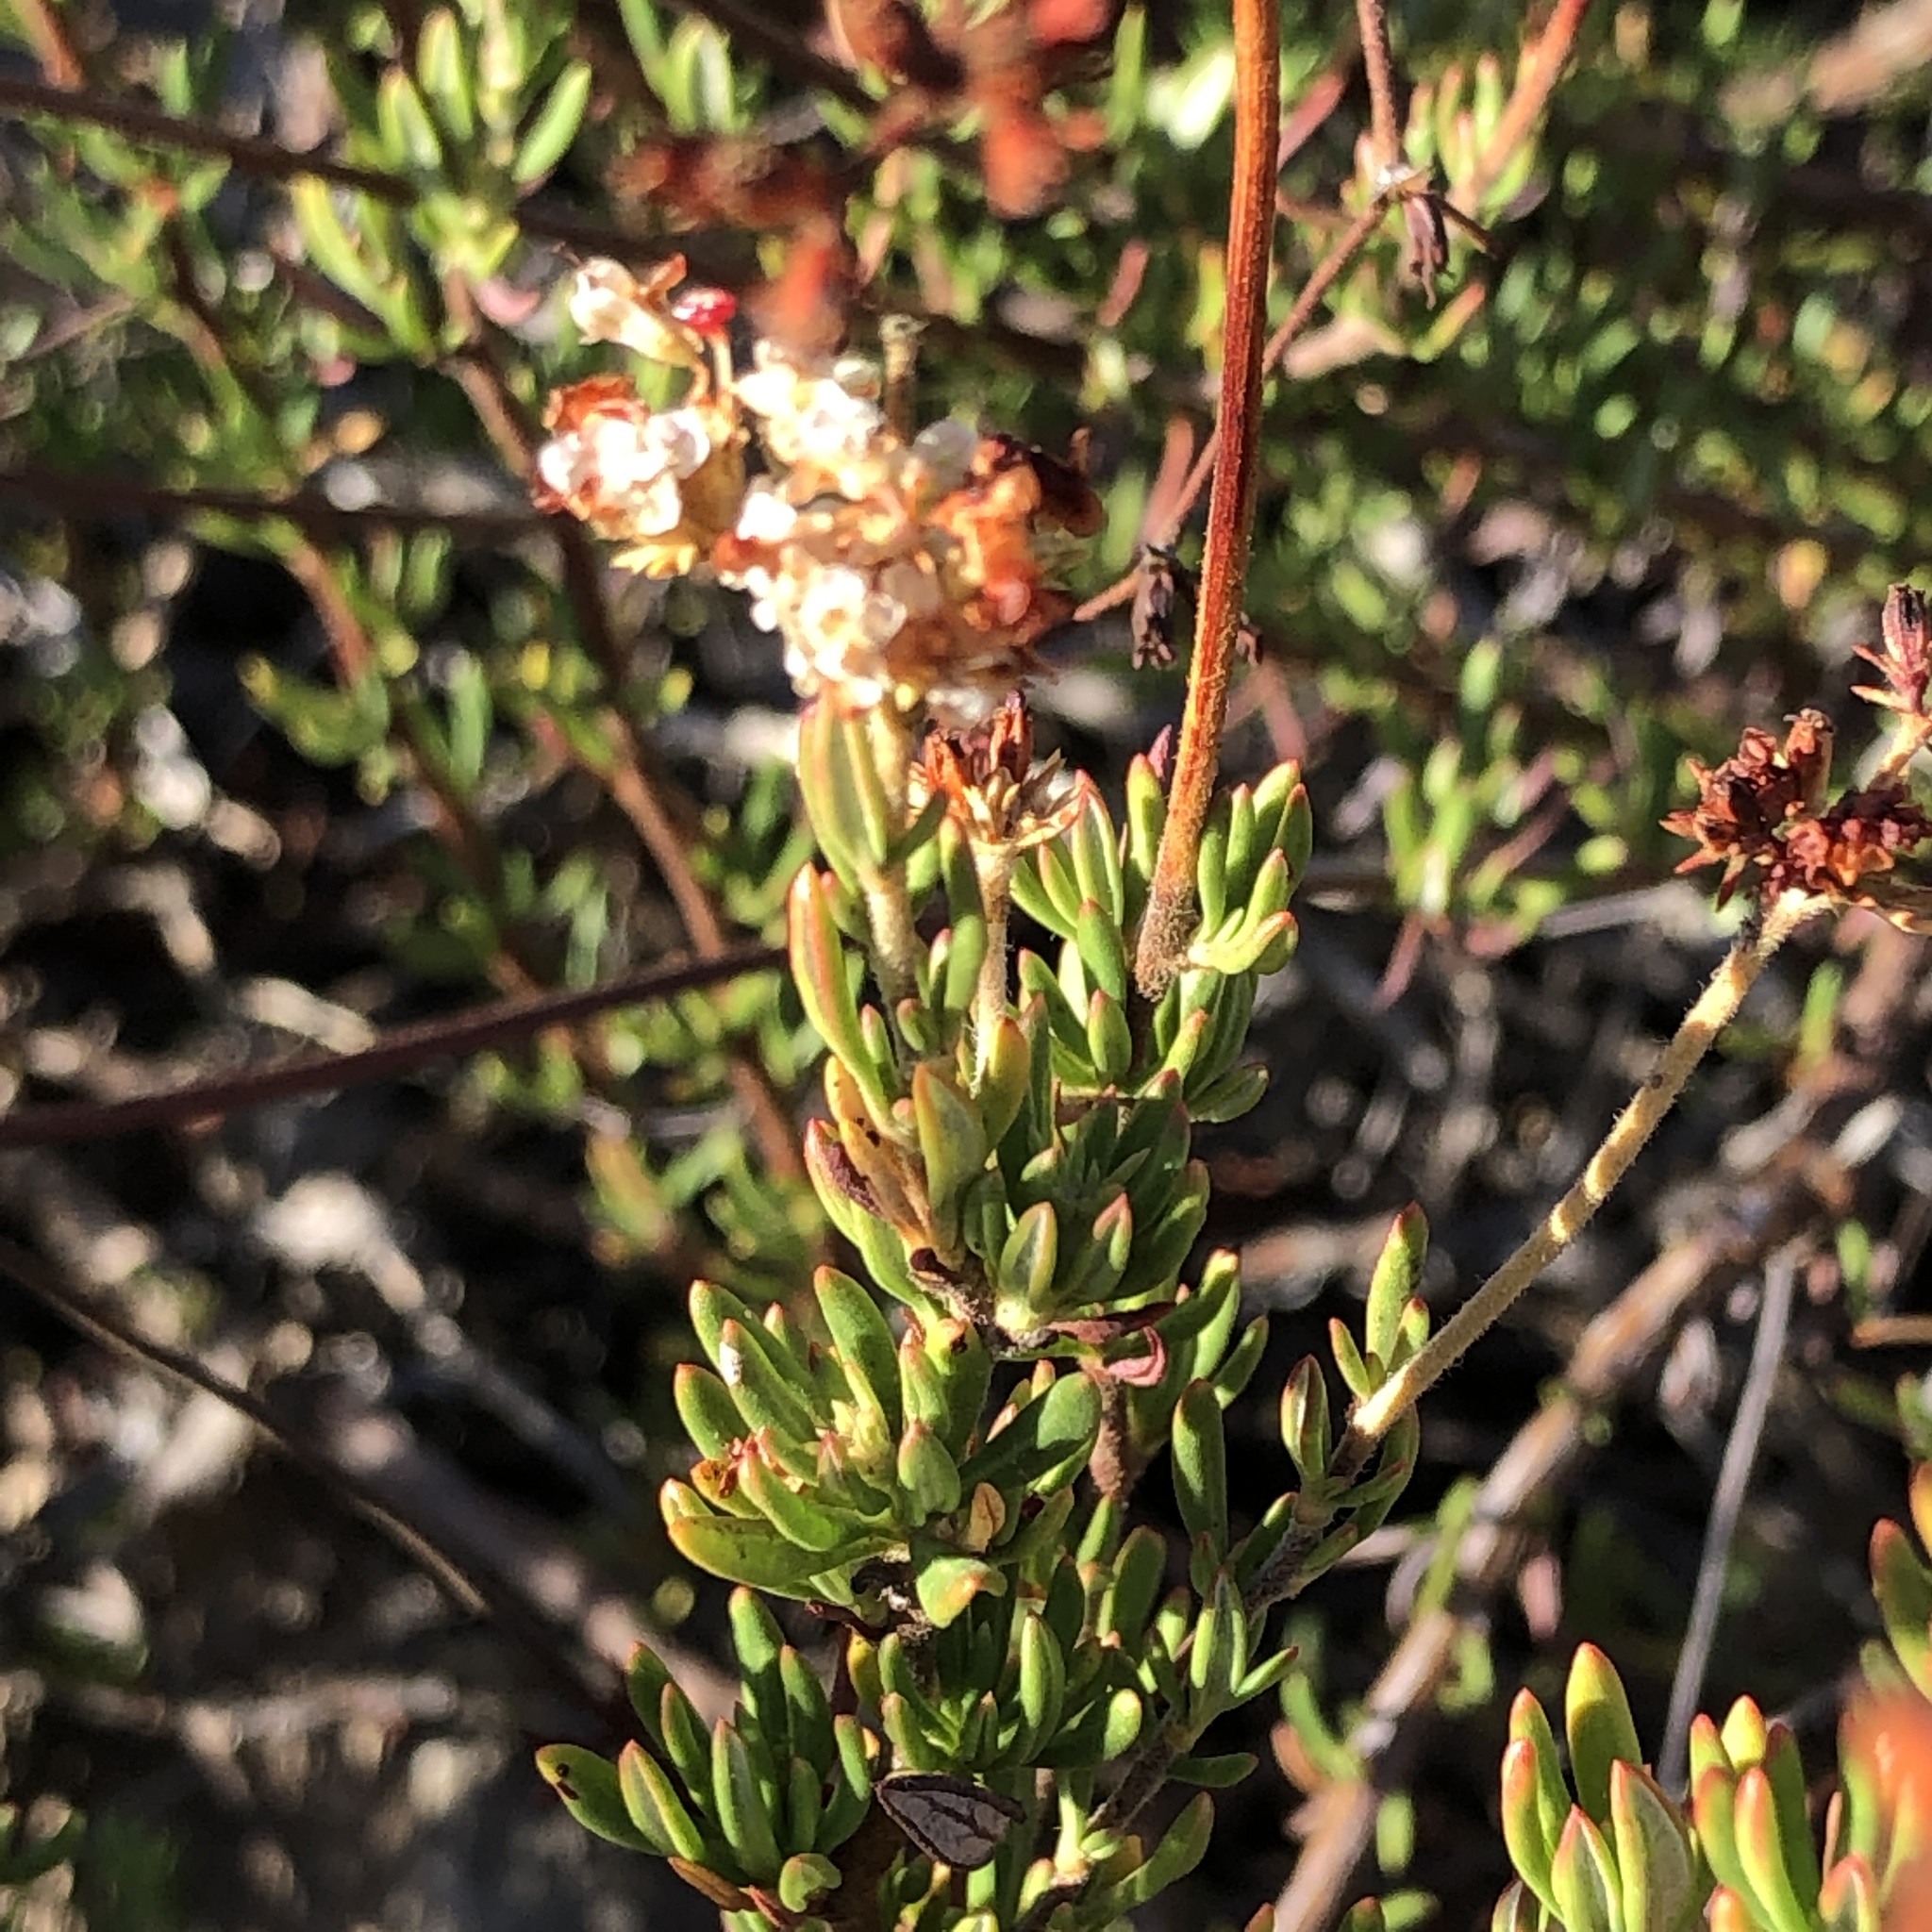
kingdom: Plantae
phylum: Tracheophyta
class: Magnoliopsida
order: Caryophyllales
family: Polygonaceae
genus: Eriogonum
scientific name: Eriogonum fasciculatum
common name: California wild buckwheat
